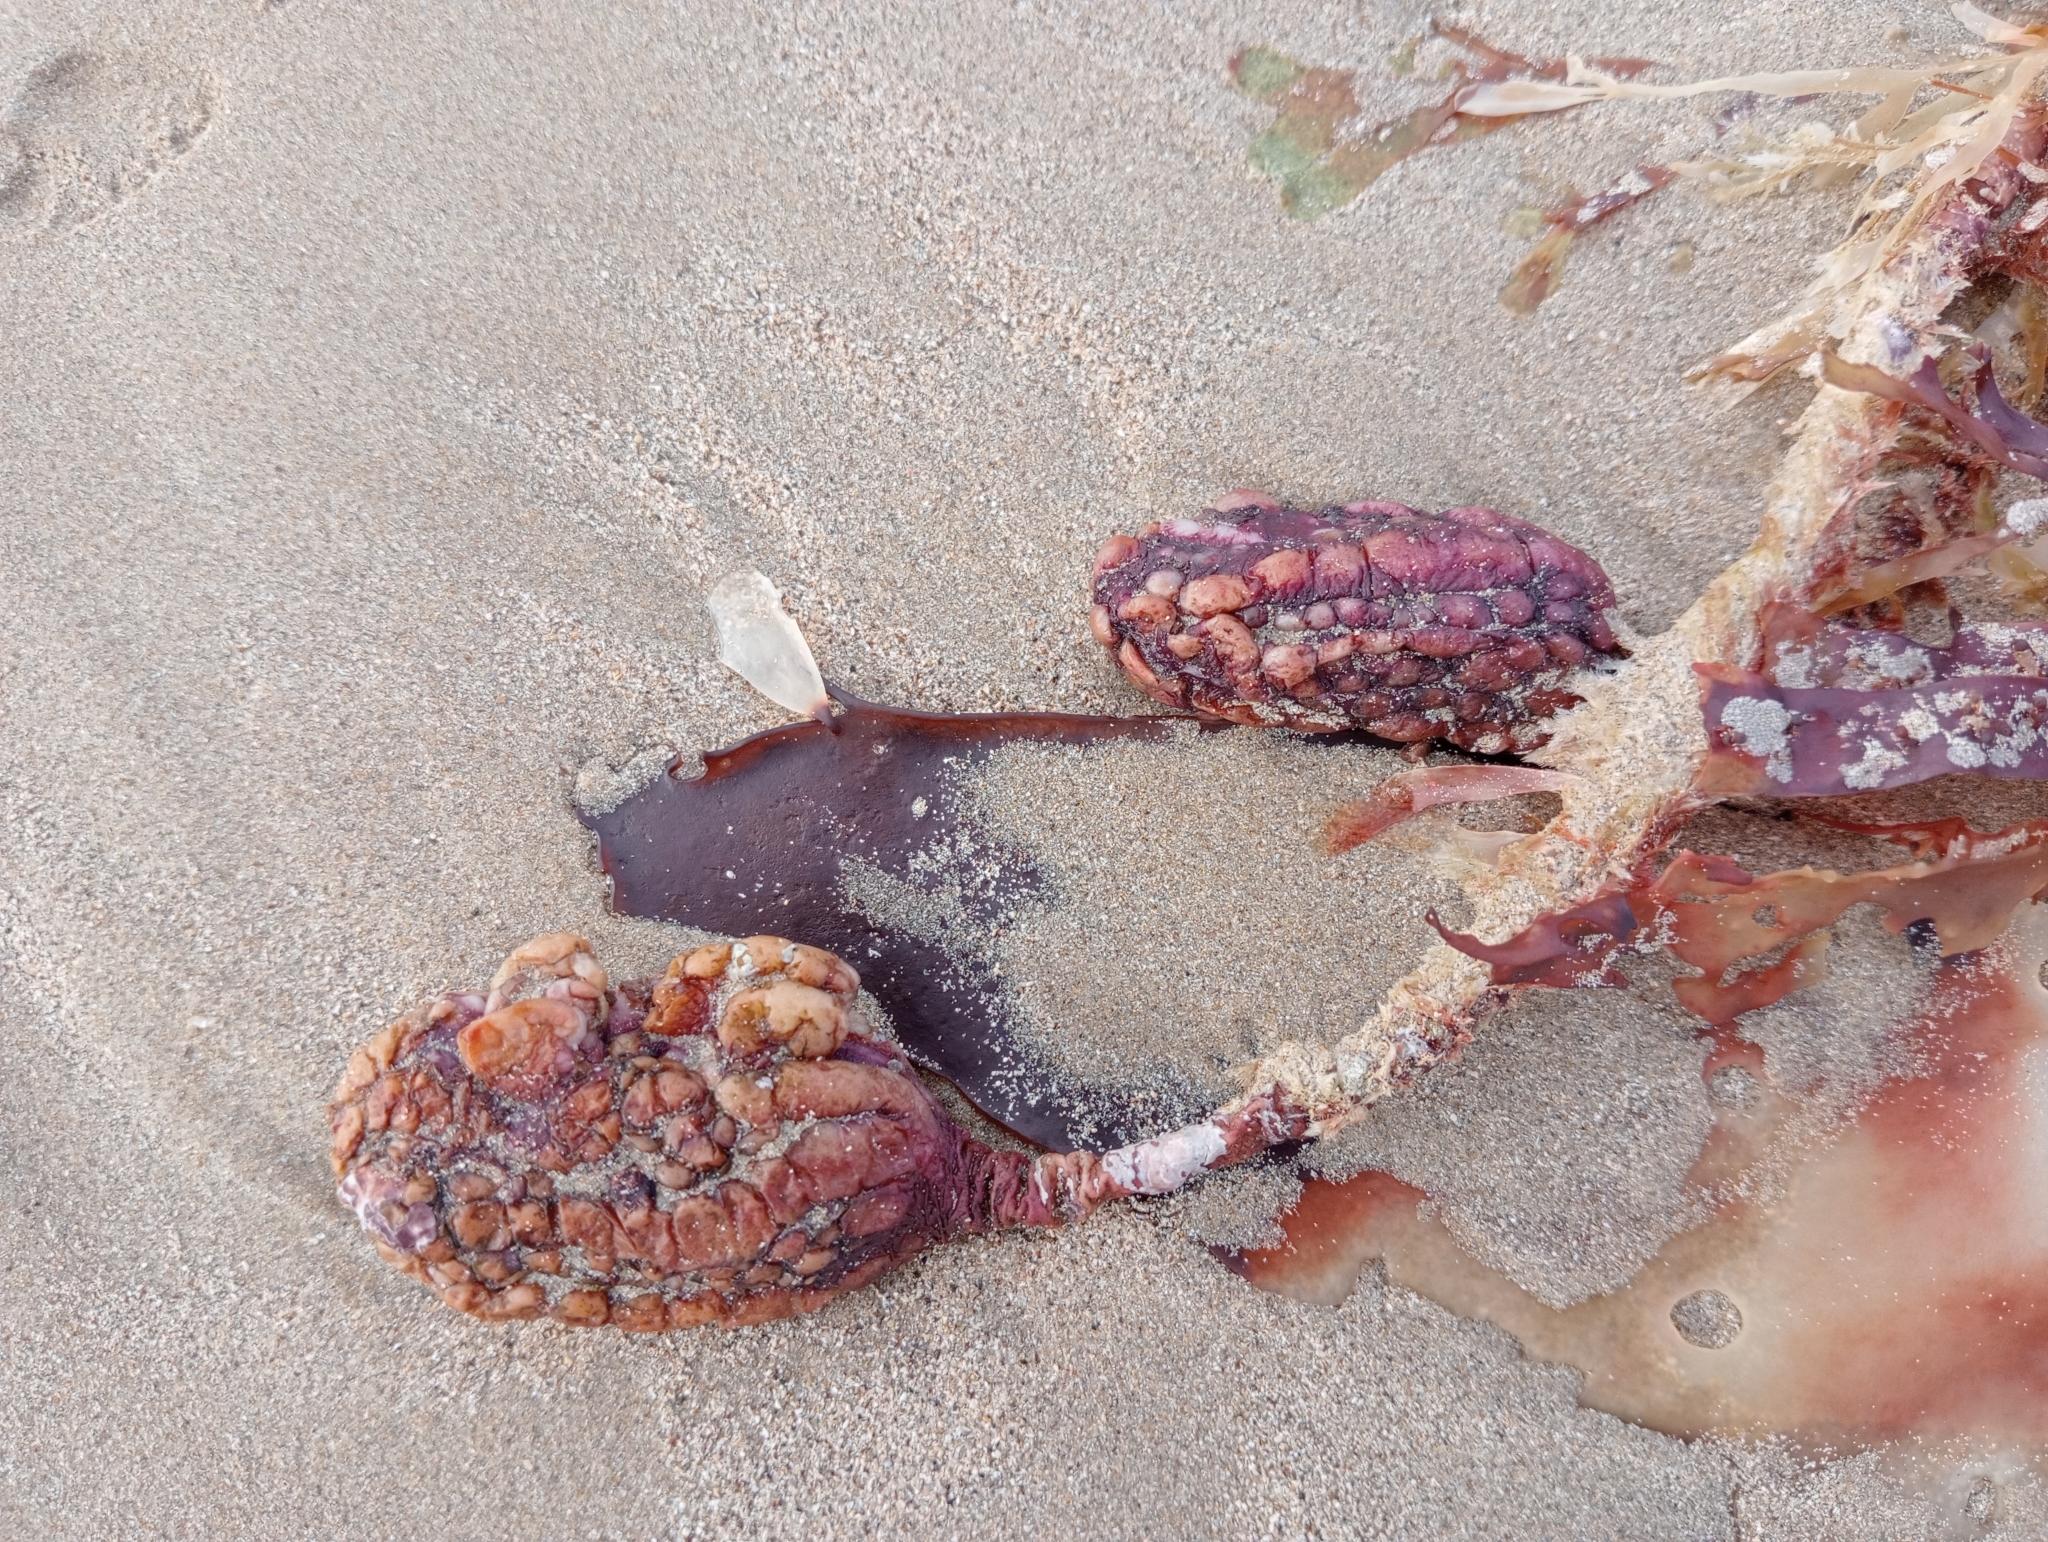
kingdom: Animalia
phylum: Chordata
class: Ascidiacea
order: Stolidobranchia
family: Pyuridae
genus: Pyura
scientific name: Pyura pachydermatina
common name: Sea tulip
